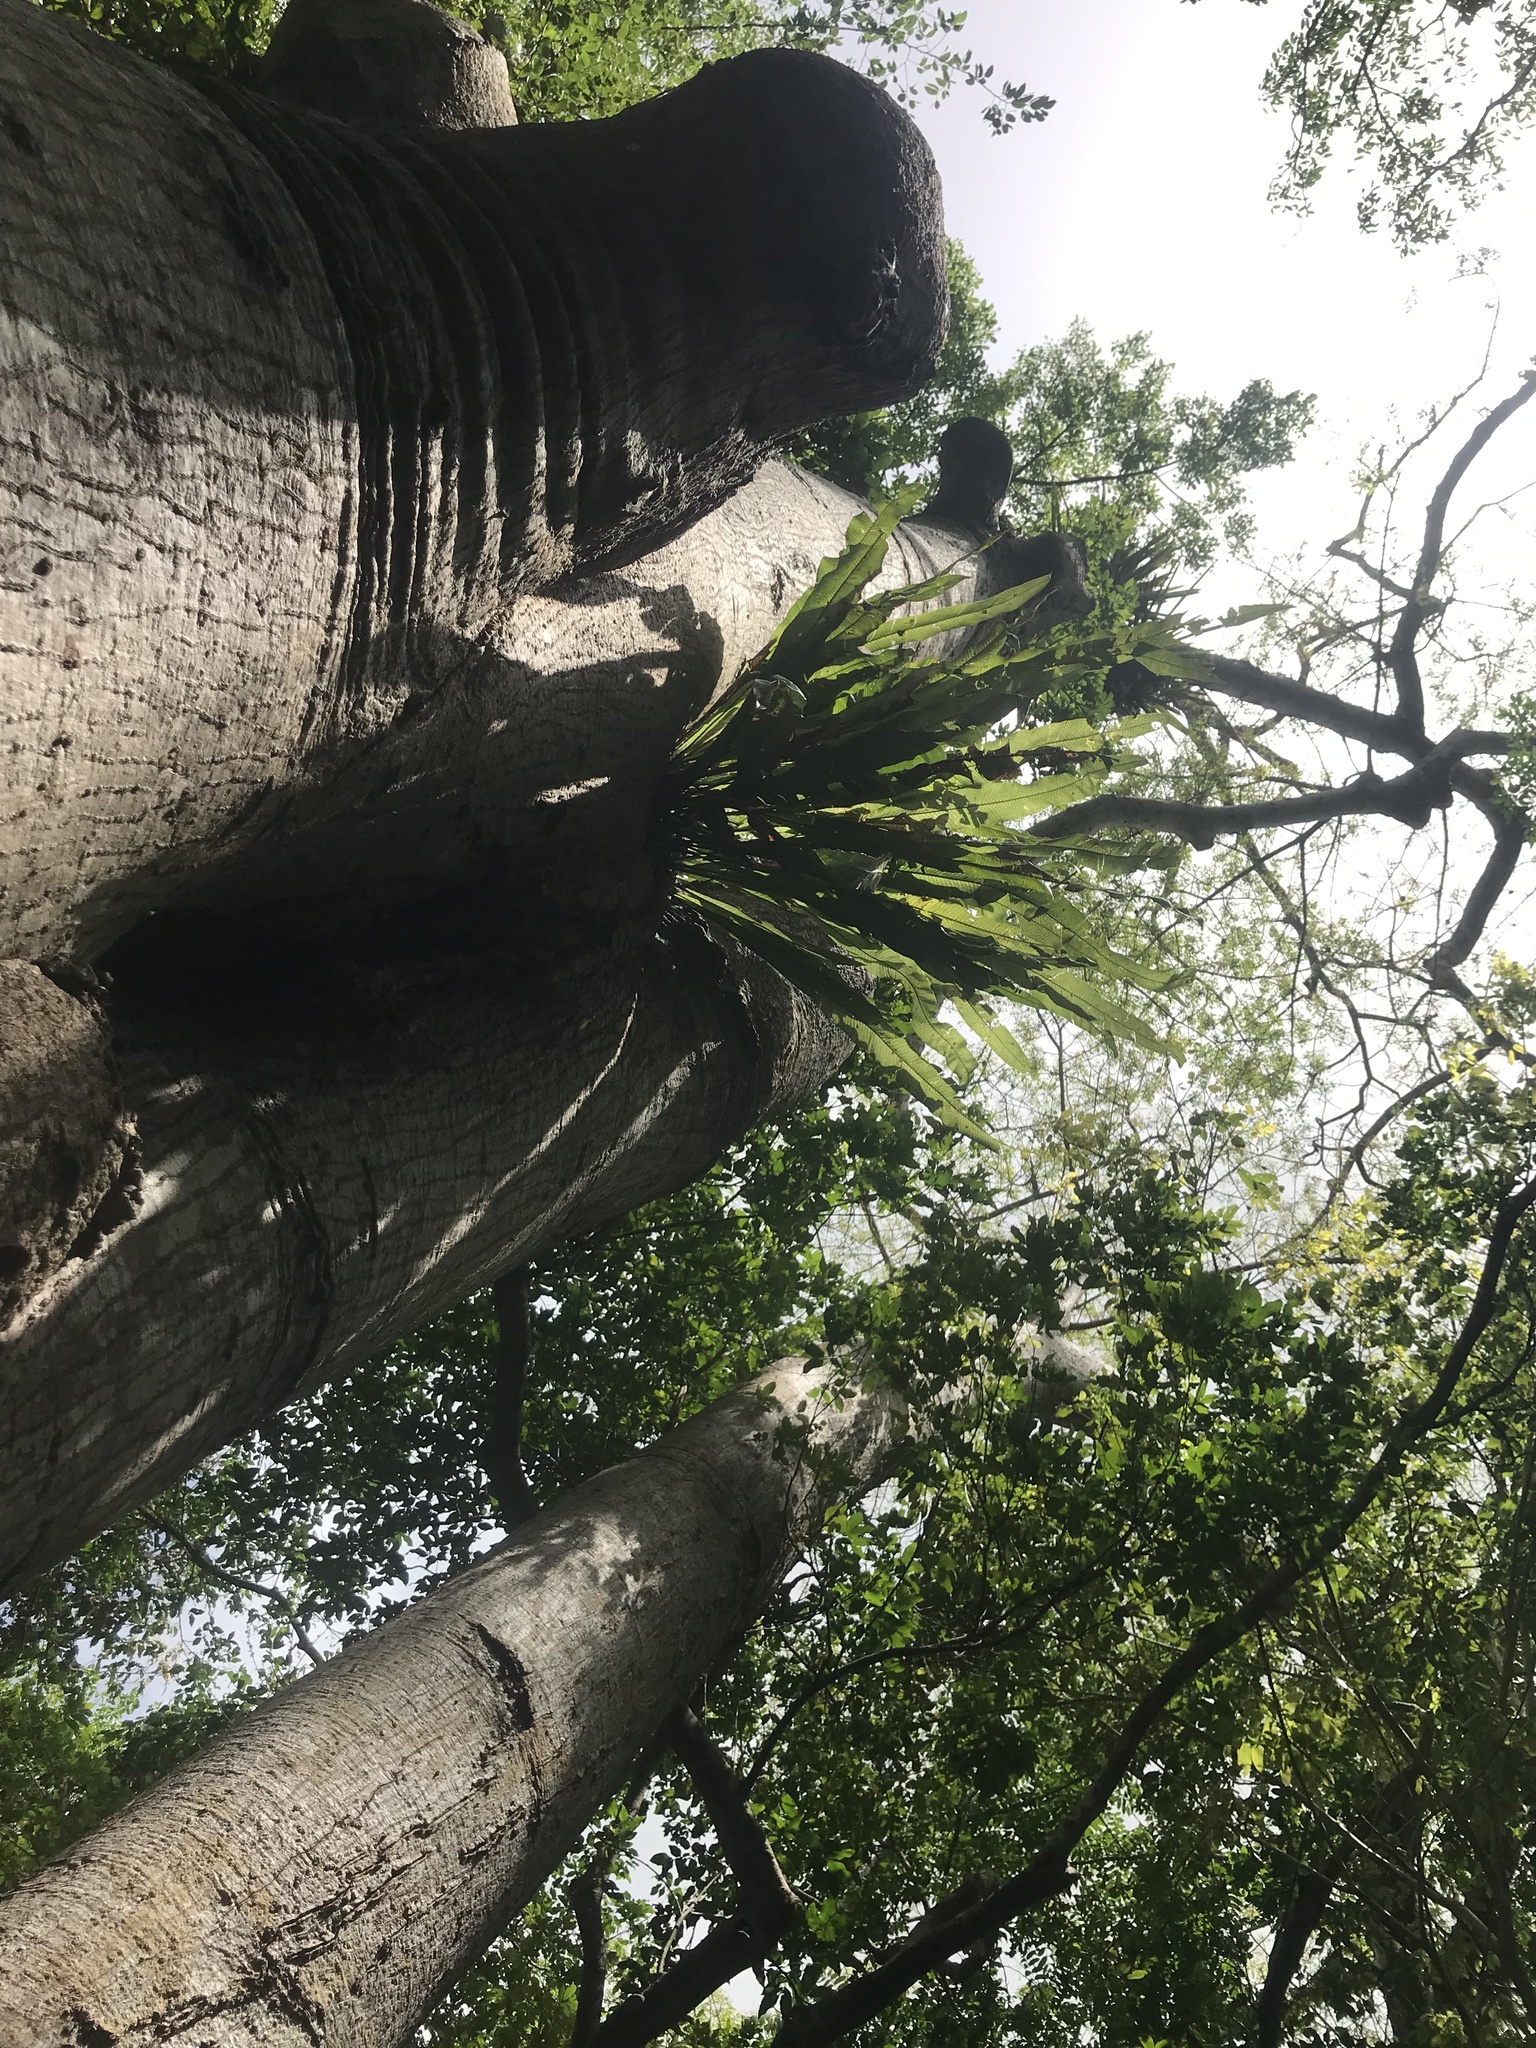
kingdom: Plantae
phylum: Tracheophyta
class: Polypodiopsida
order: Polypodiales
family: Polypodiaceae
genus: Campyloneurum
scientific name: Campyloneurum phyllitidis
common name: Cow-tongue fern
